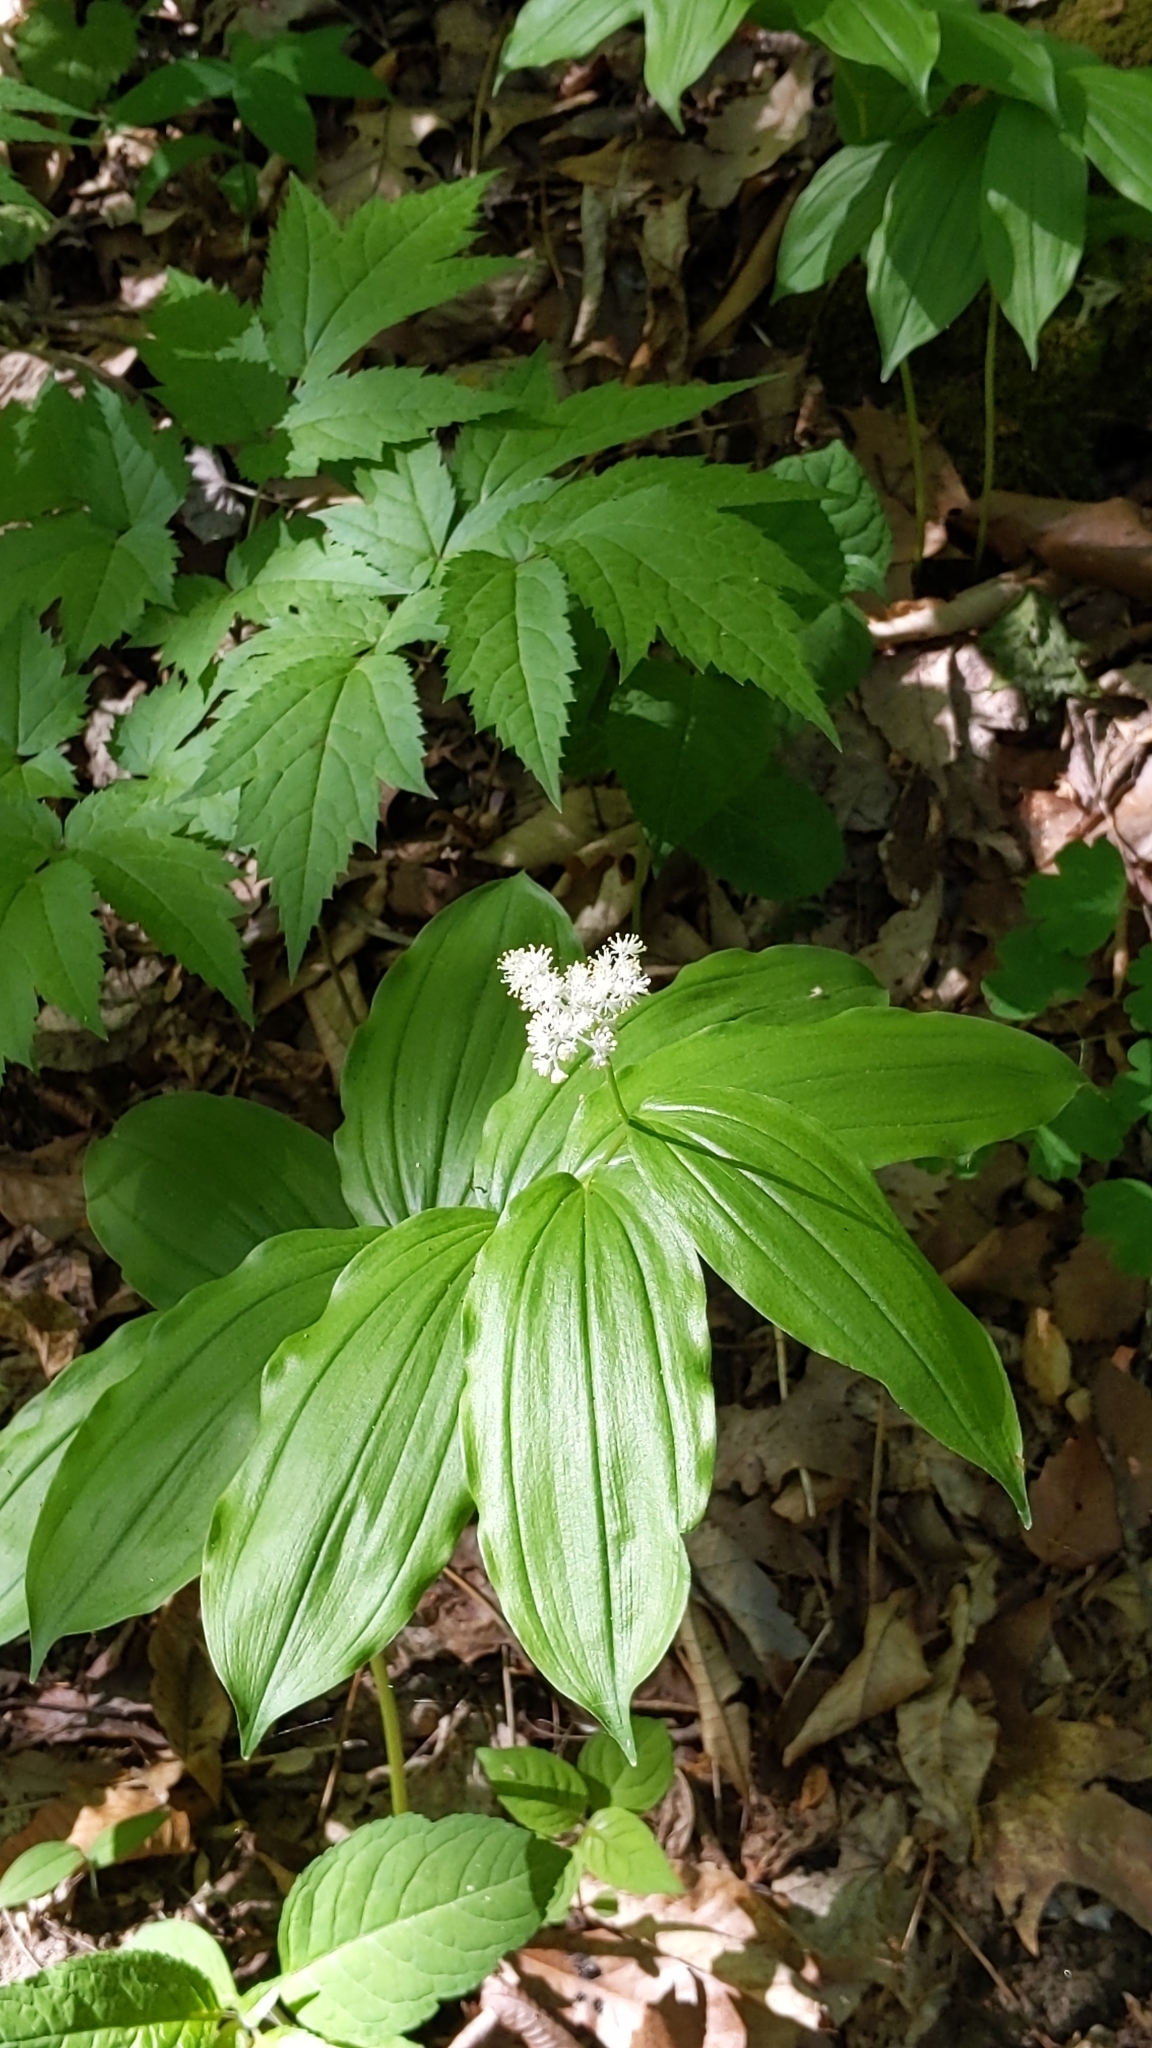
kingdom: Plantae
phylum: Tracheophyta
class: Liliopsida
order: Asparagales
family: Asparagaceae
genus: Maianthemum
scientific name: Maianthemum racemosum
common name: False spikenard
